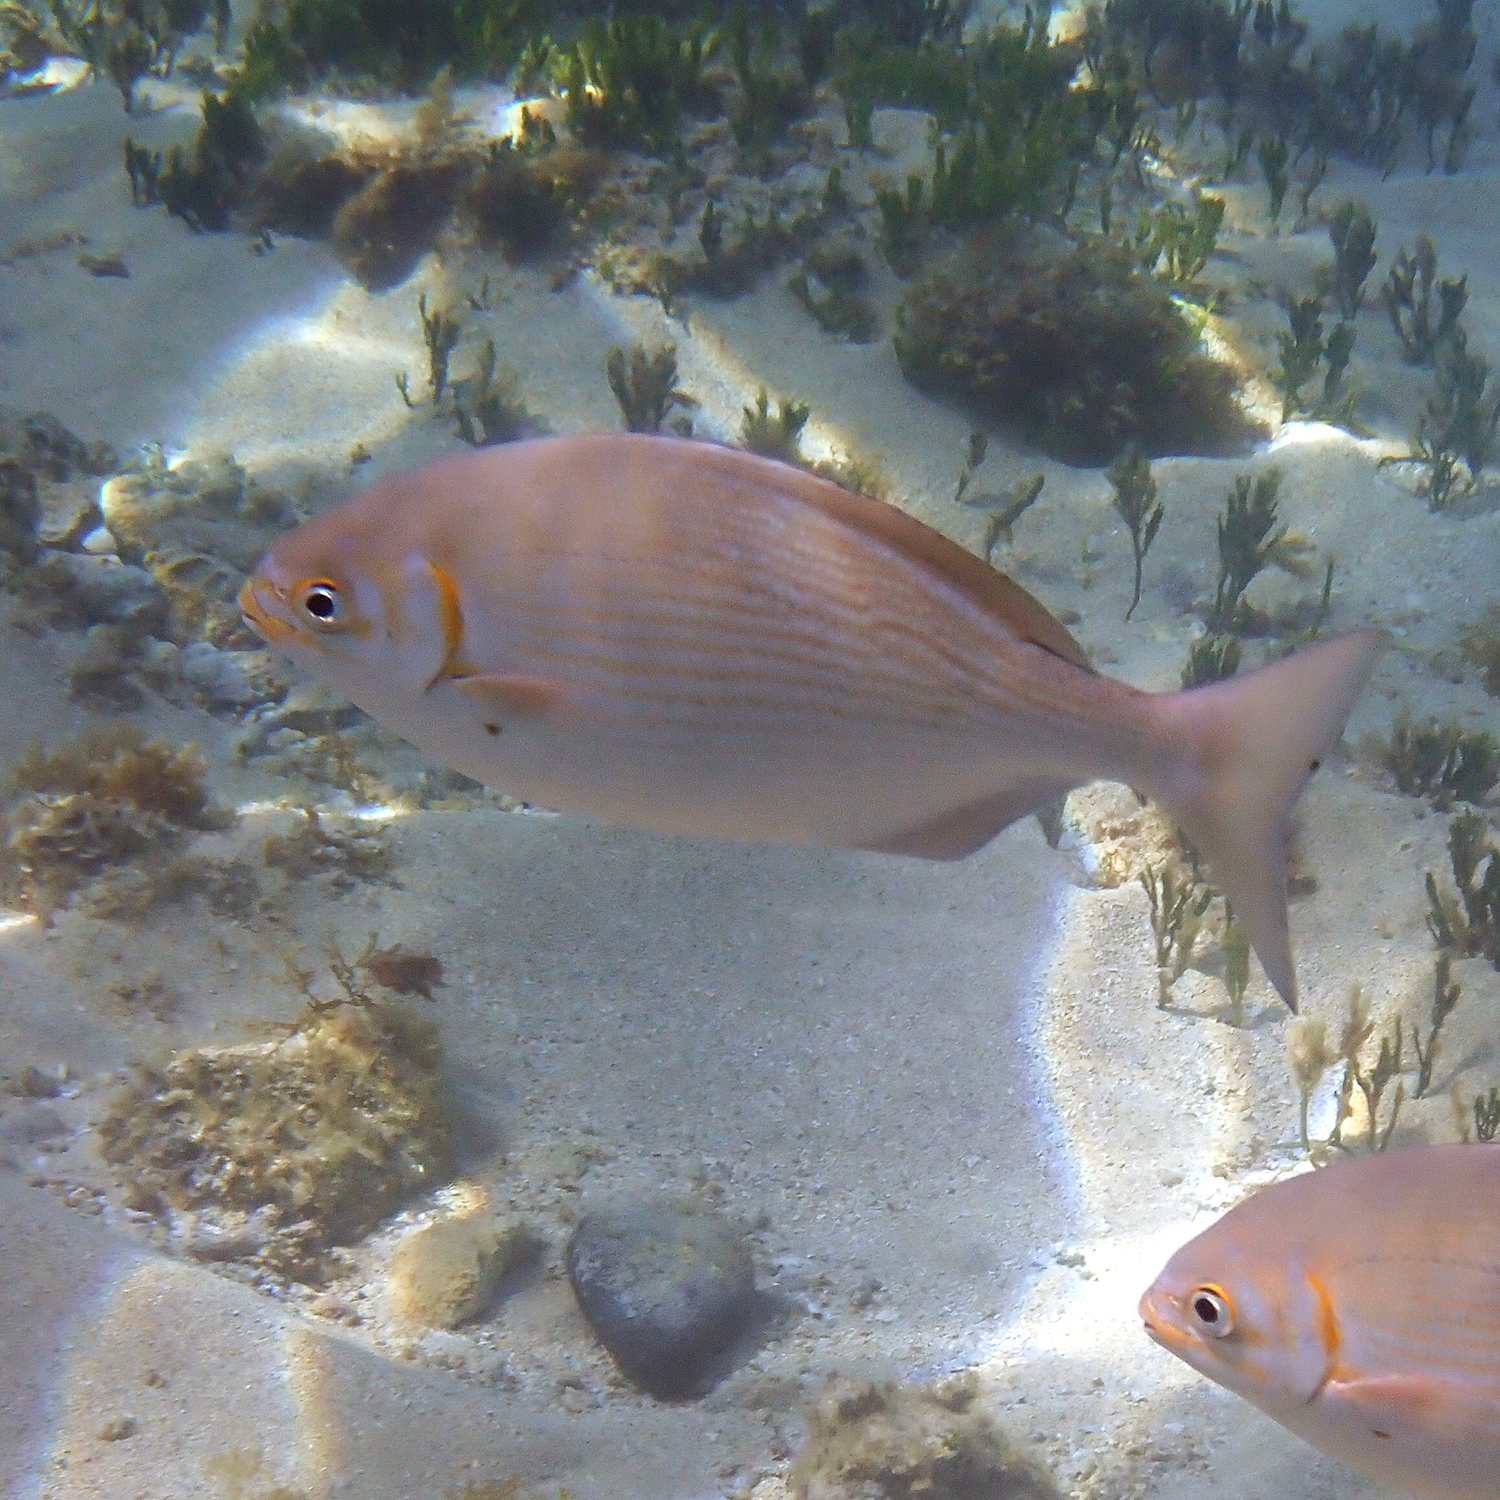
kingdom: Animalia
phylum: Chordata
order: Perciformes
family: Kyphosidae
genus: Kyphosus
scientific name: Kyphosus vaigiensis
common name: Brassy chub
